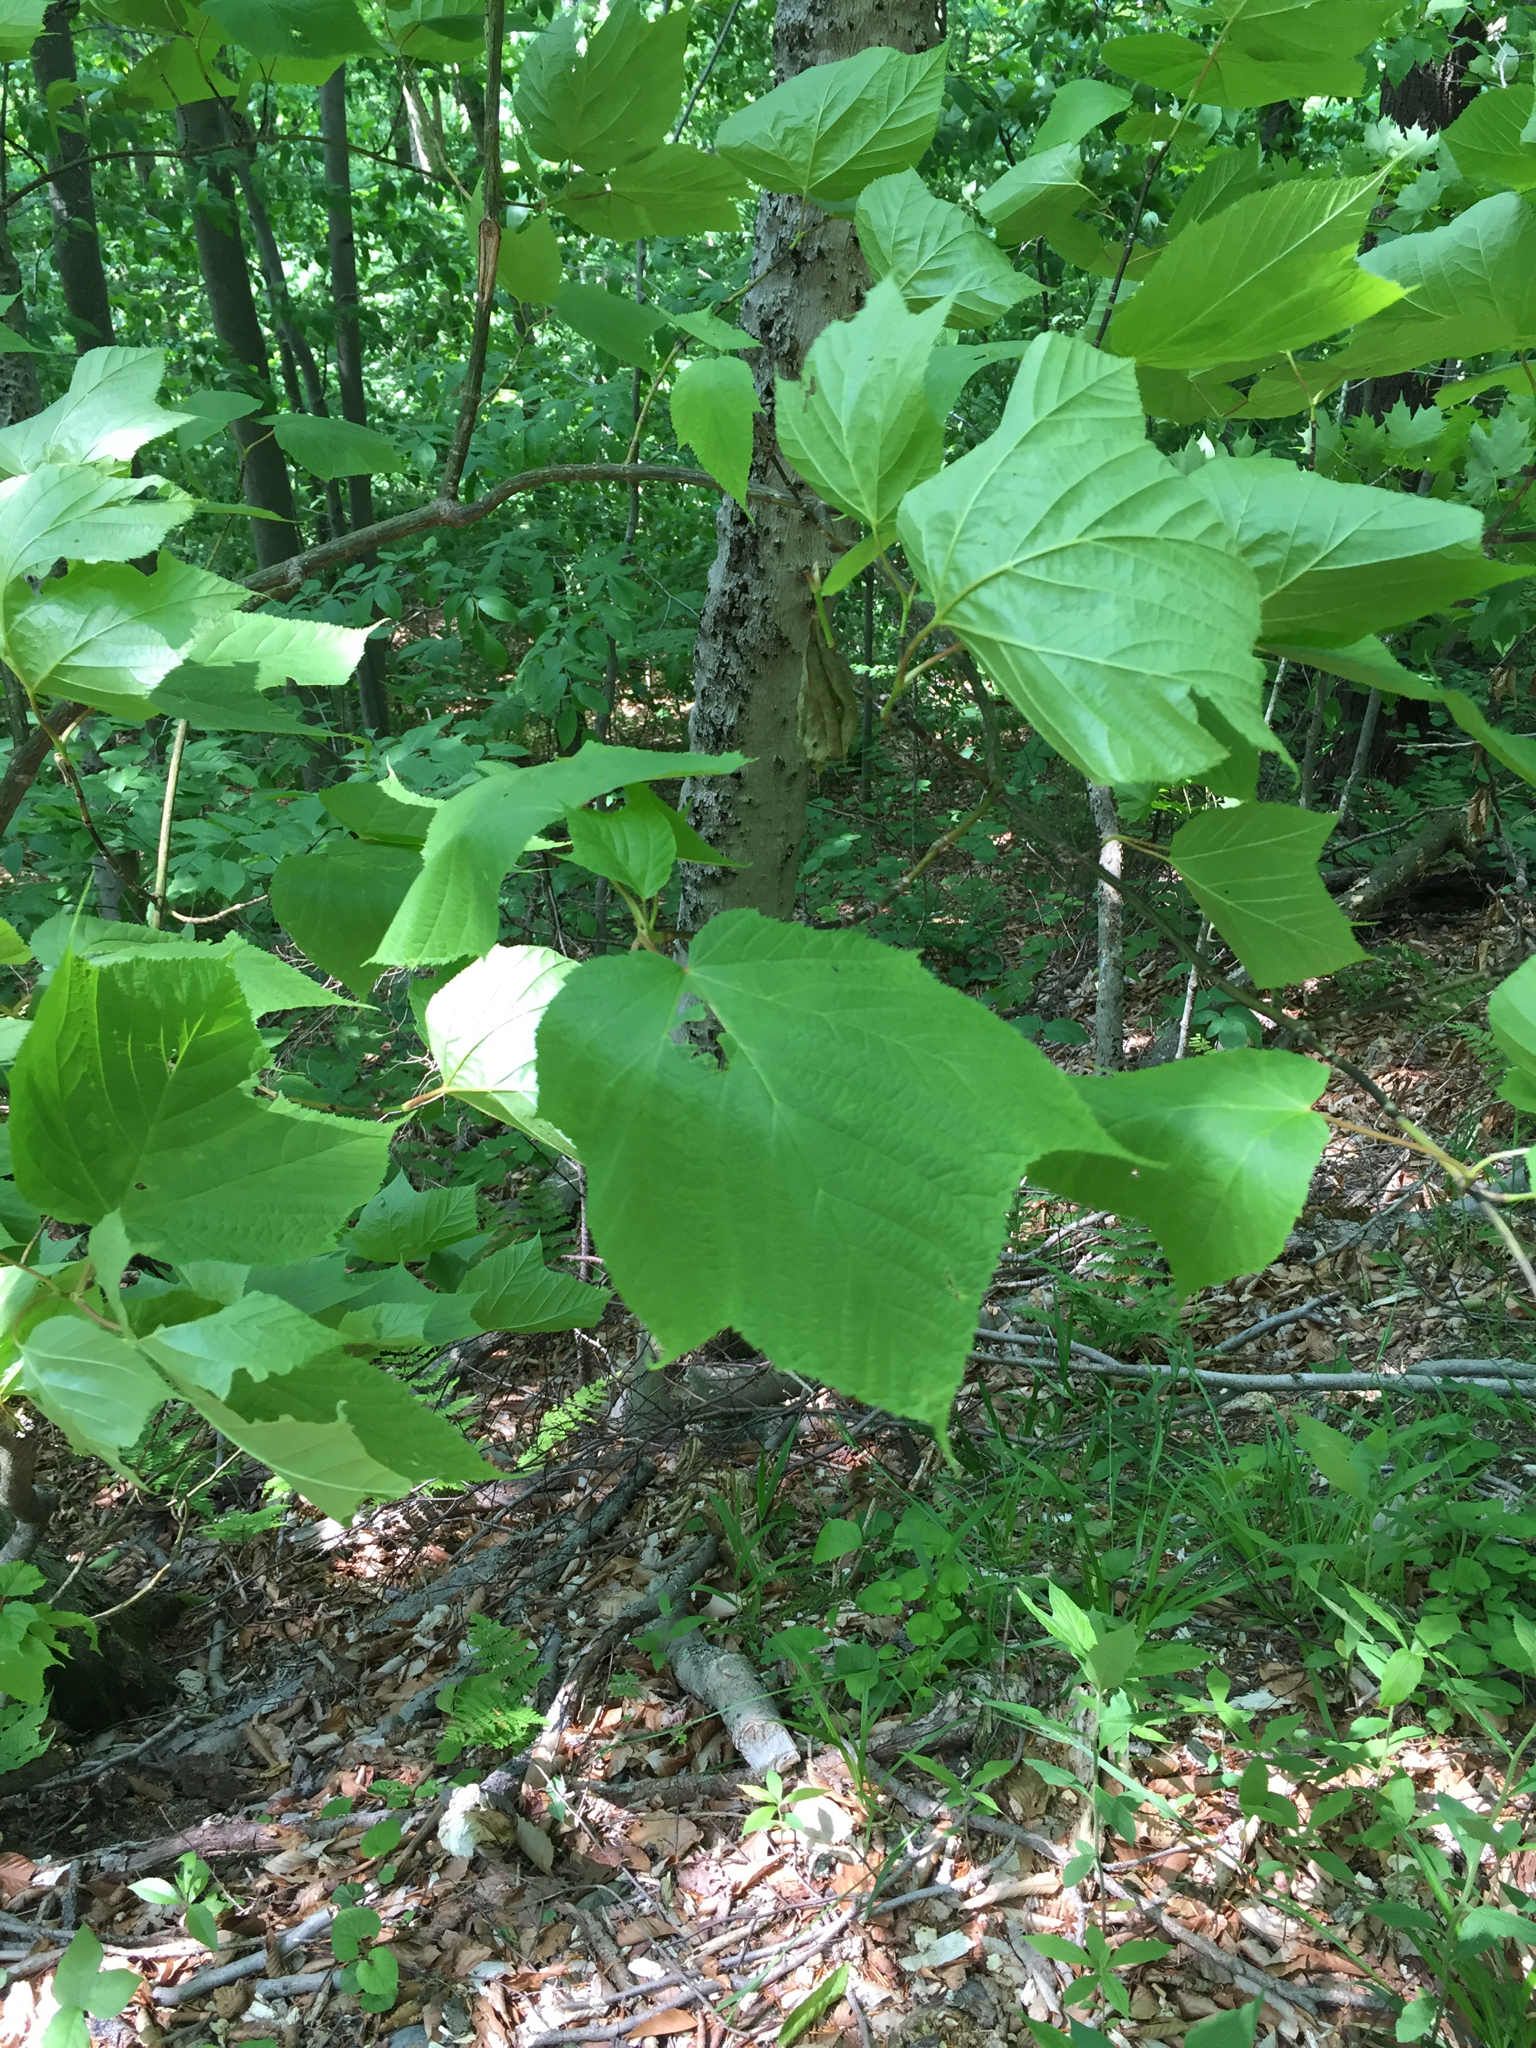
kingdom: Plantae
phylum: Tracheophyta
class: Magnoliopsida
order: Sapindales
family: Sapindaceae
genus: Acer
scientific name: Acer pensylvanicum
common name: Moosewood
